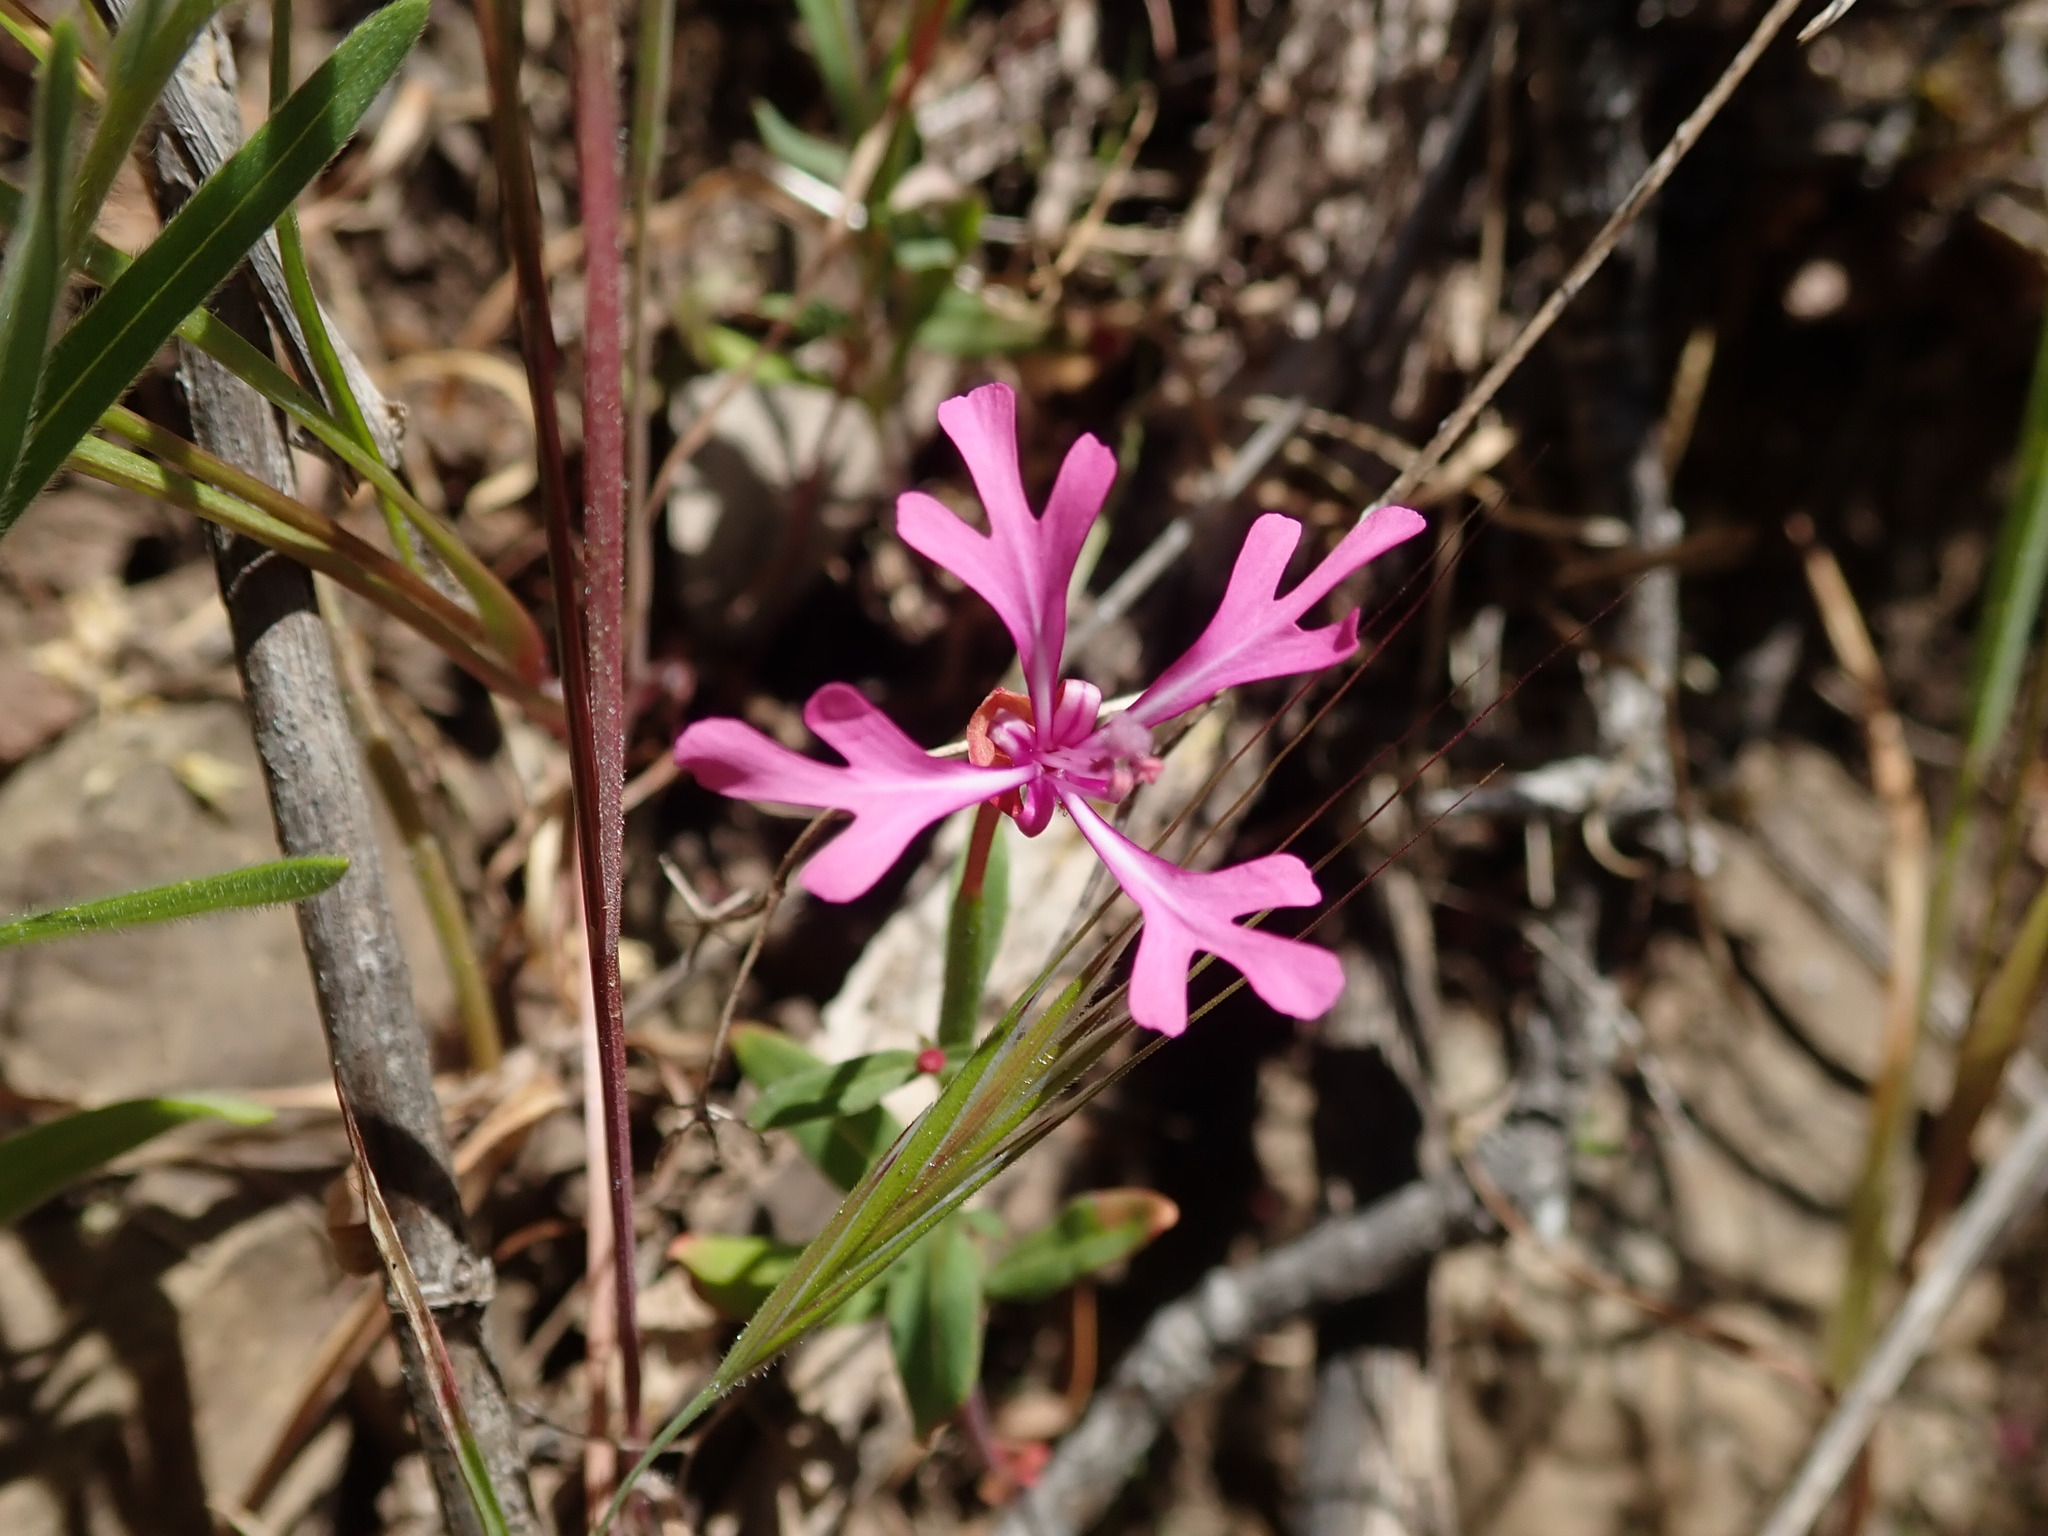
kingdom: Plantae
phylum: Tracheophyta
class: Magnoliopsida
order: Myrtales
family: Onagraceae
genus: Clarkia
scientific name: Clarkia concinna
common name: Red-ribbons
